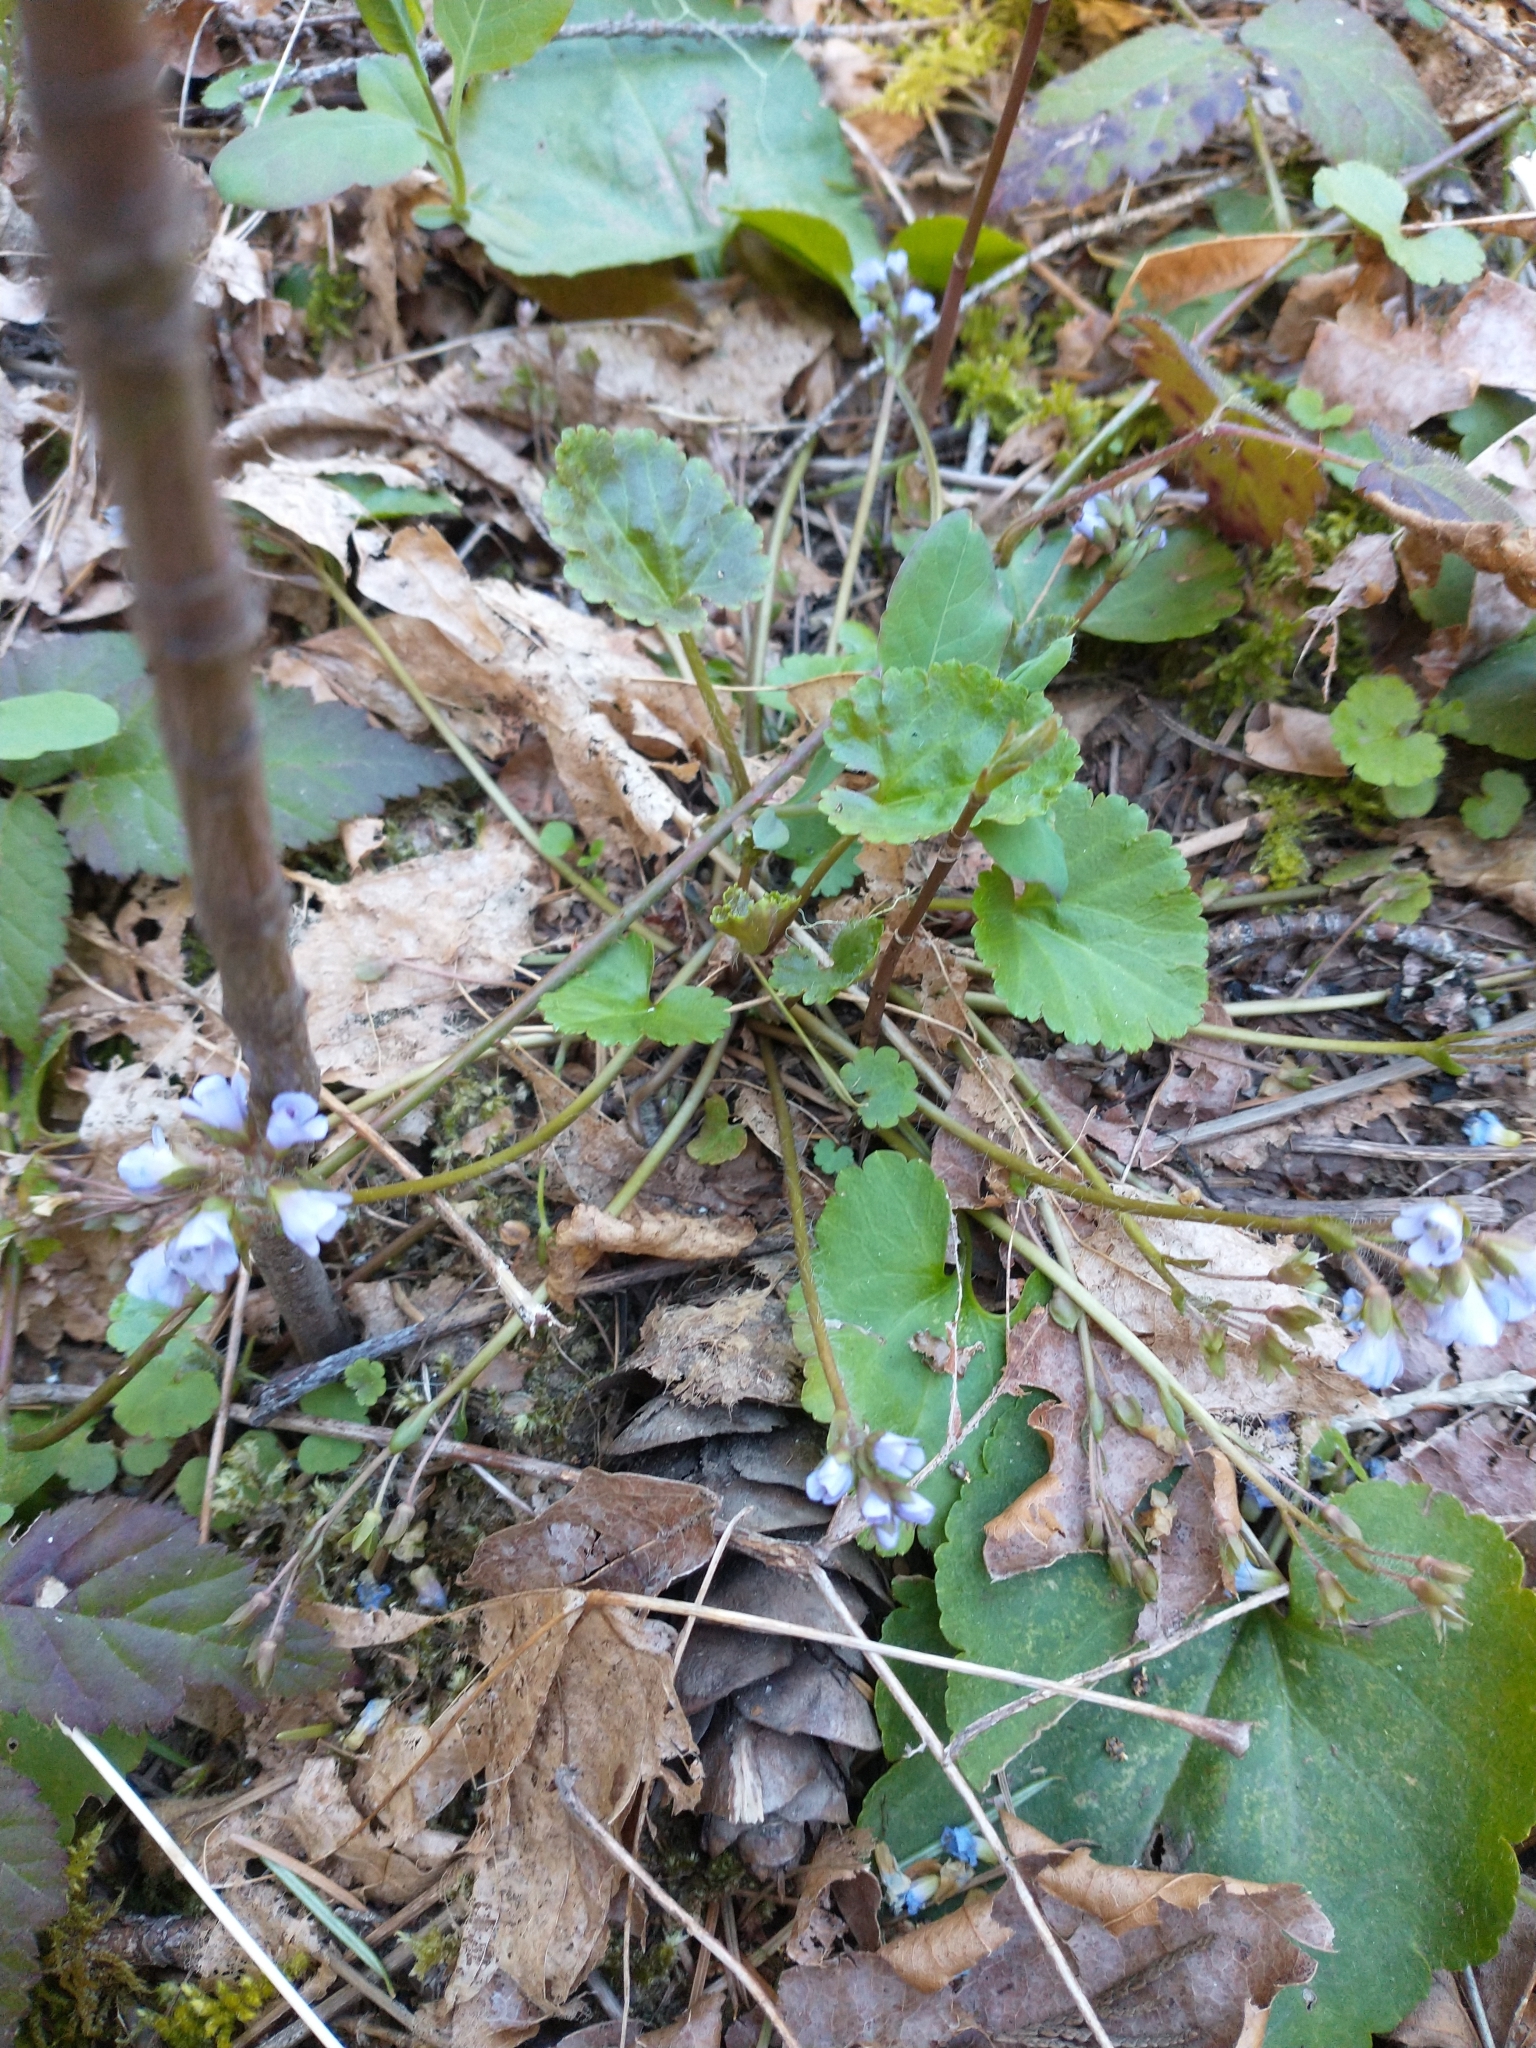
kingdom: Plantae
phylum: Tracheophyta
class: Magnoliopsida
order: Lamiales
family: Plantaginaceae
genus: Synthyris
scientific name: Synthyris reniformis
